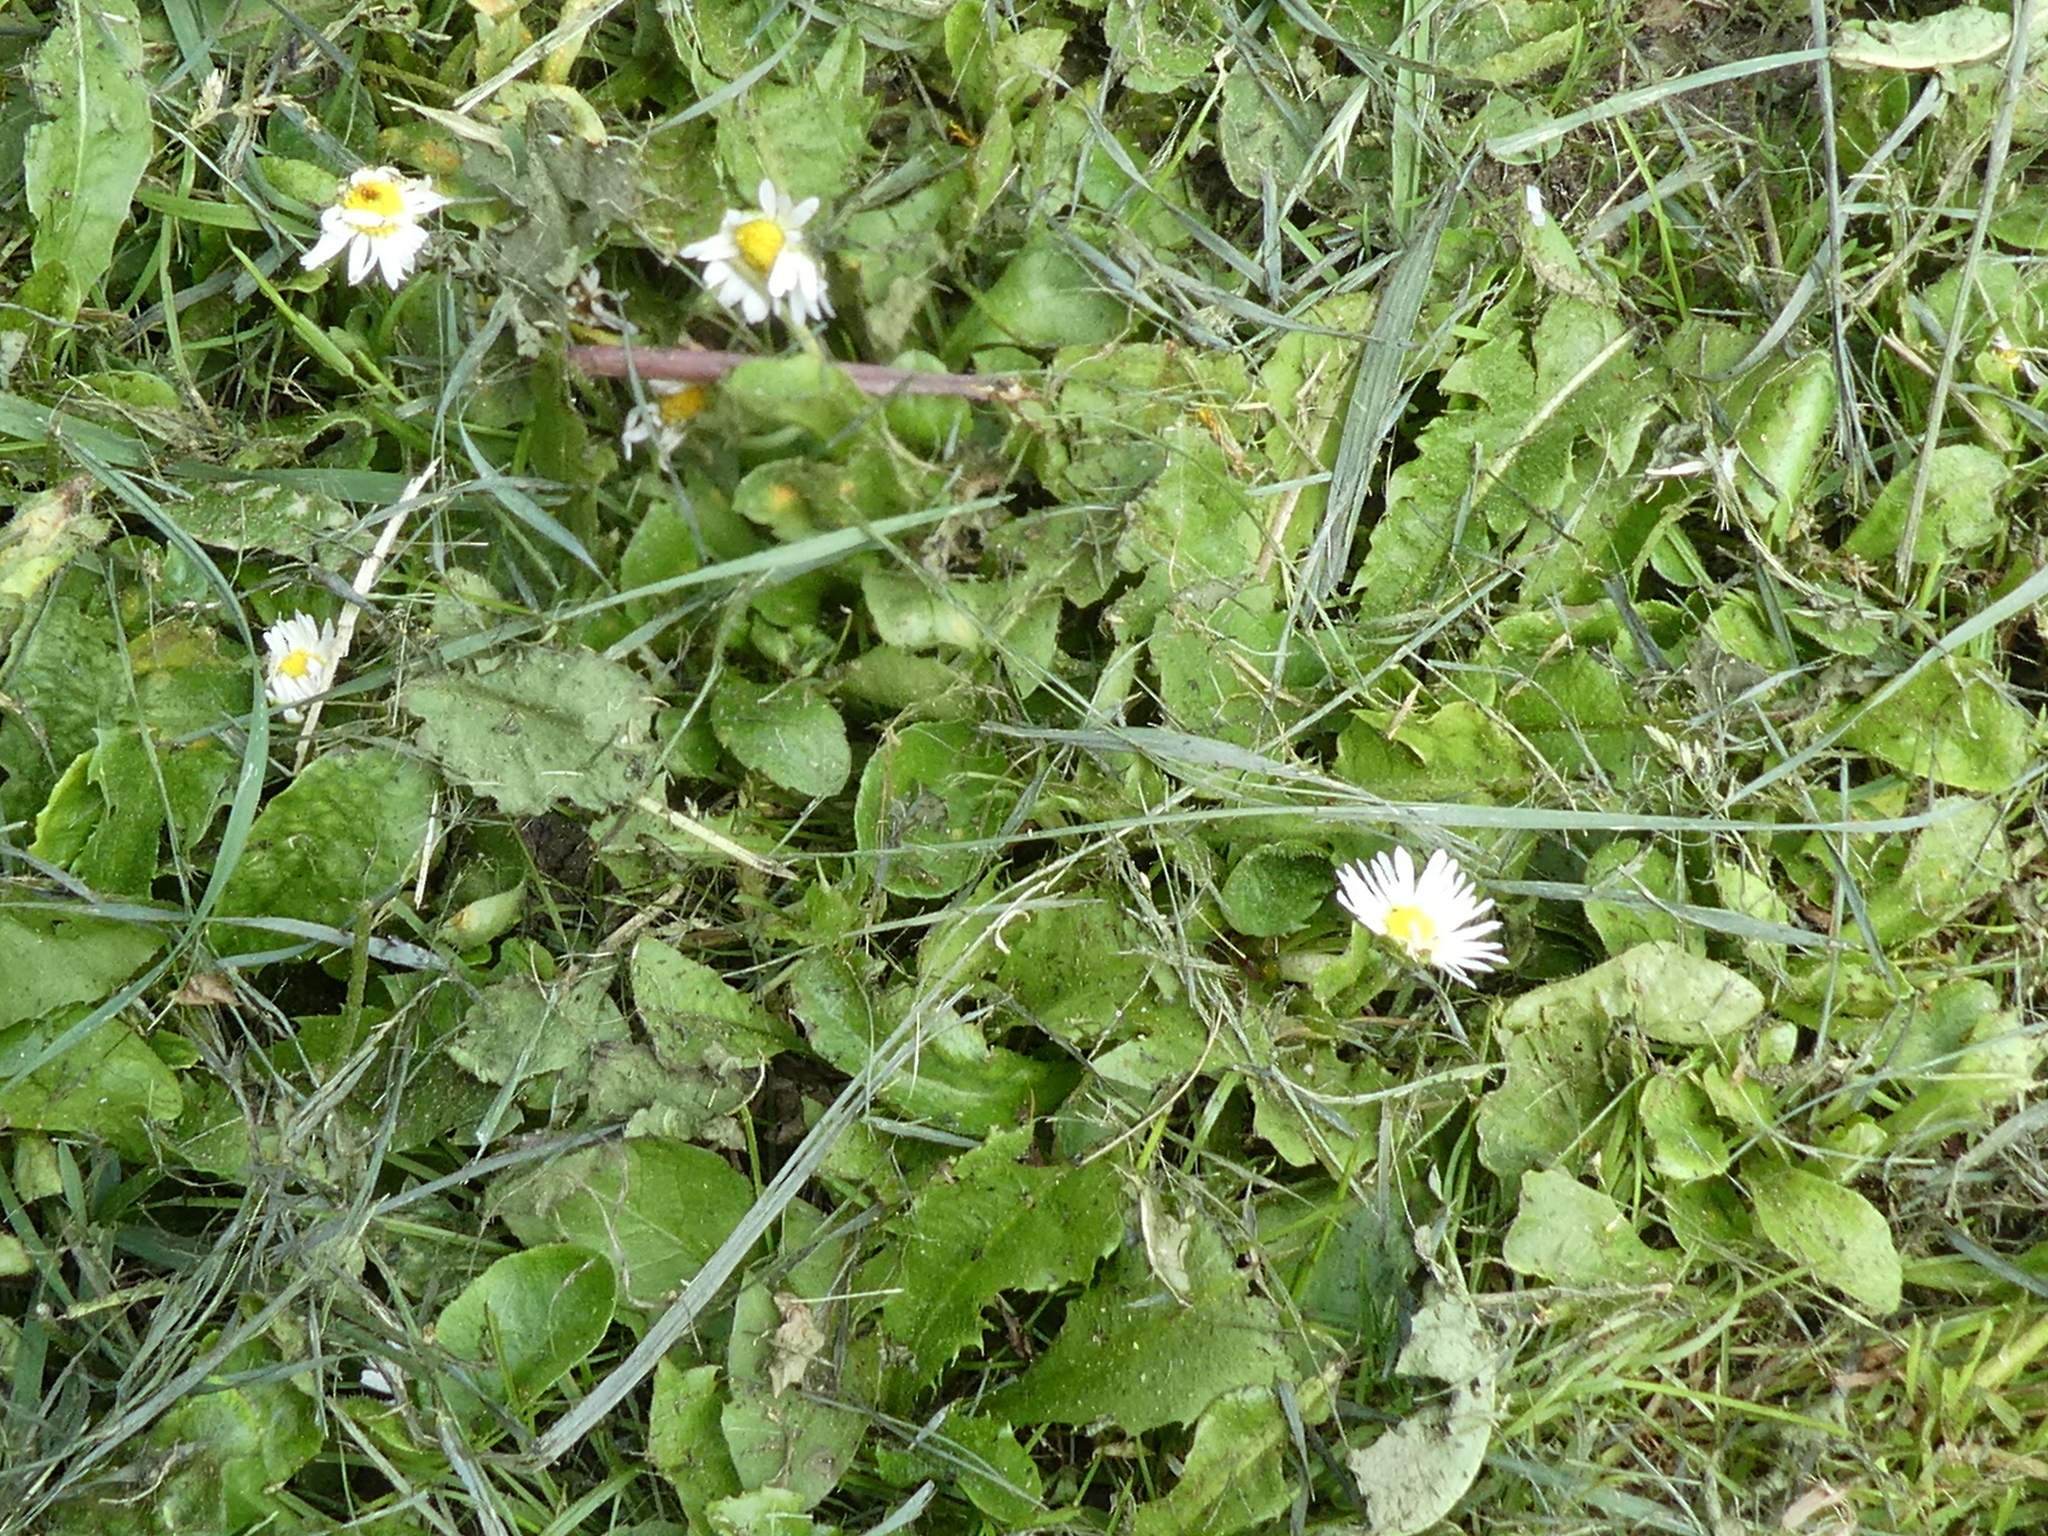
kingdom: Plantae
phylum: Tracheophyta
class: Magnoliopsida
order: Asterales
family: Asteraceae
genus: Bellis
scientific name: Bellis perennis
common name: Lawndaisy
